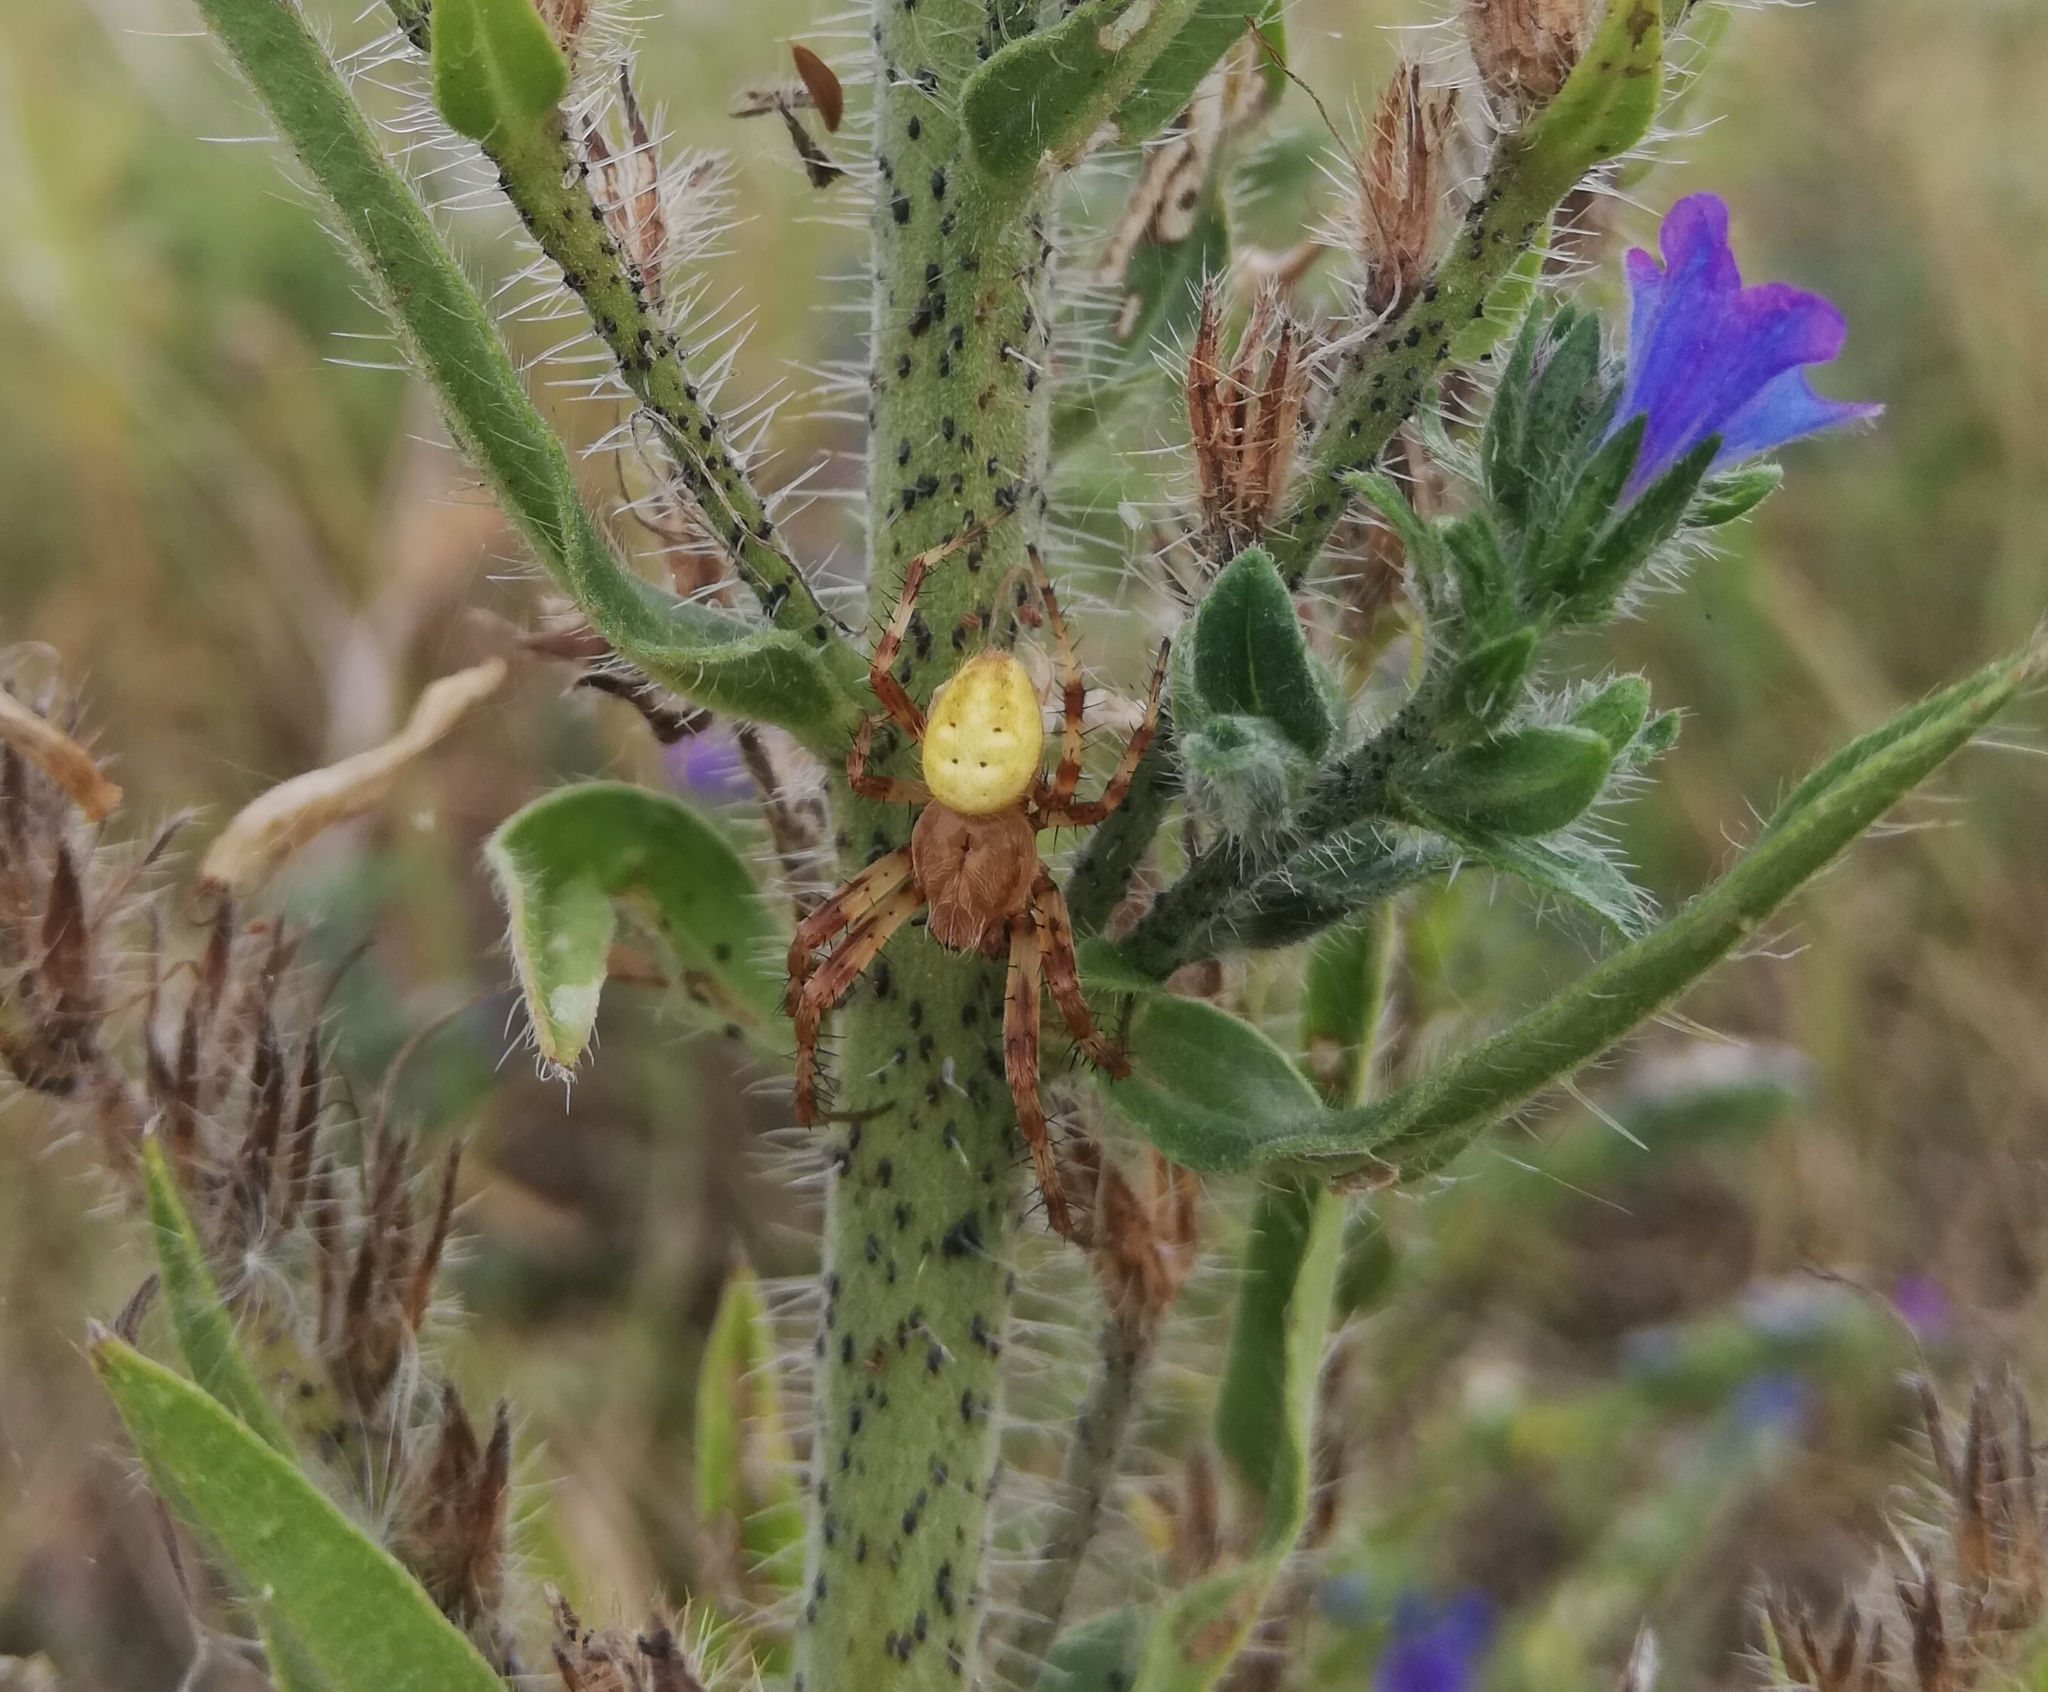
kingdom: Animalia
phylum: Arthropoda
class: Arachnida
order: Araneae
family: Araneidae
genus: Araneus
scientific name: Araneus quadratus
